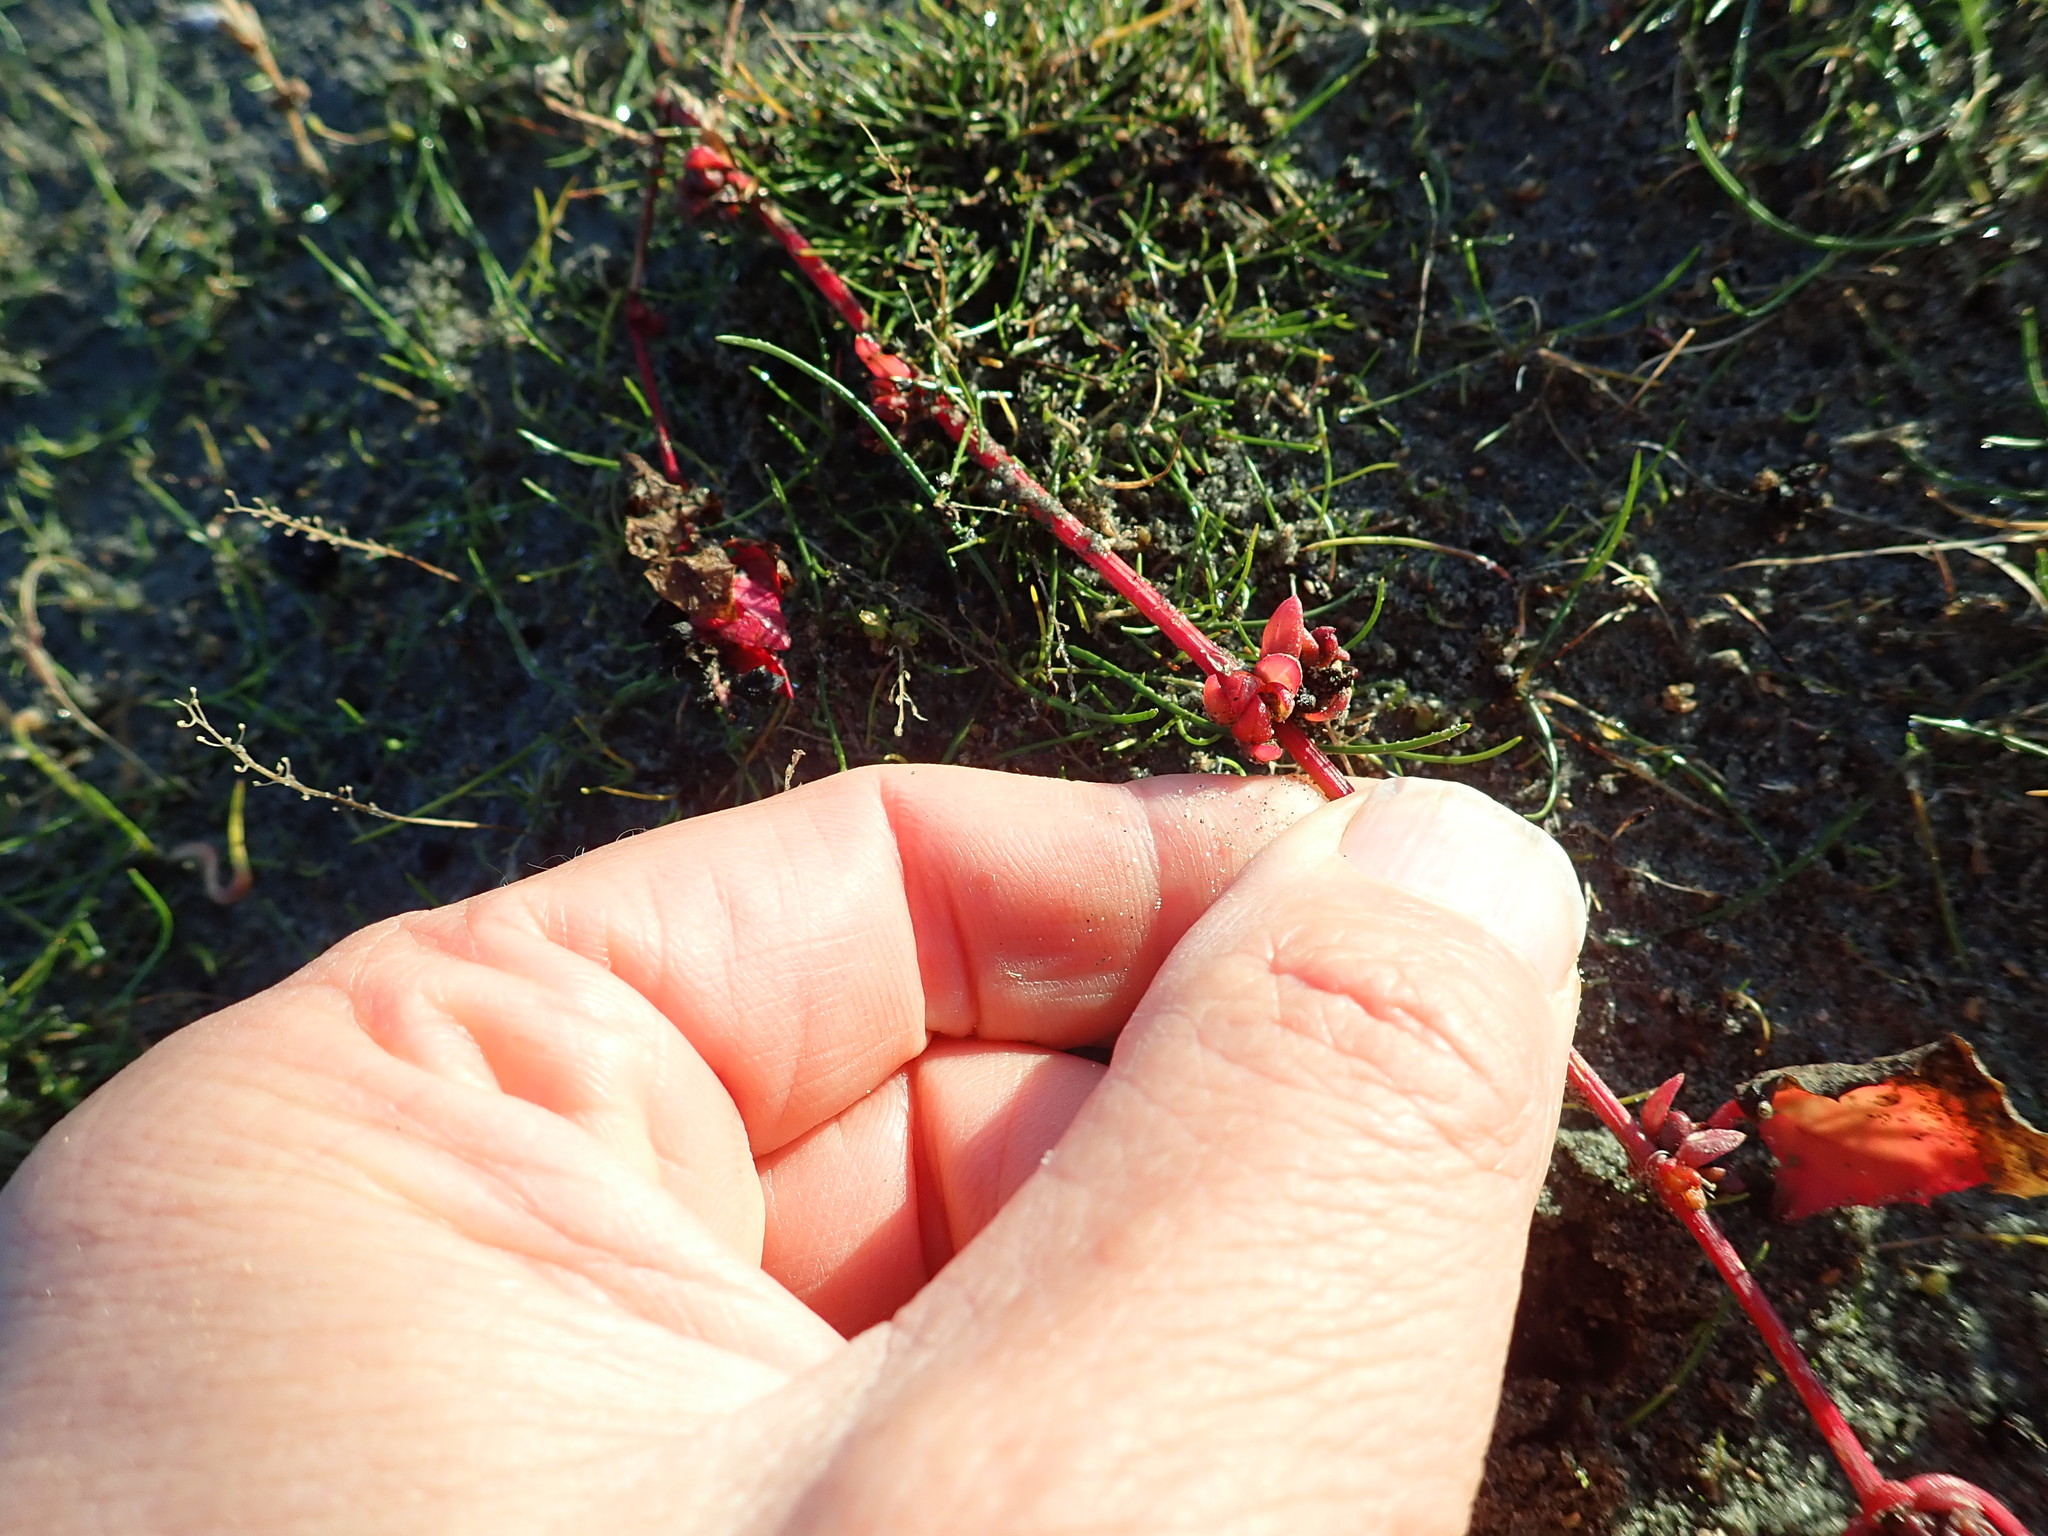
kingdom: Plantae
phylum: Tracheophyta
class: Magnoliopsida
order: Caryophyllales
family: Amaranthaceae
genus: Atriplex
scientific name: Atriplex prostrata
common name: Spear-leaved orache
